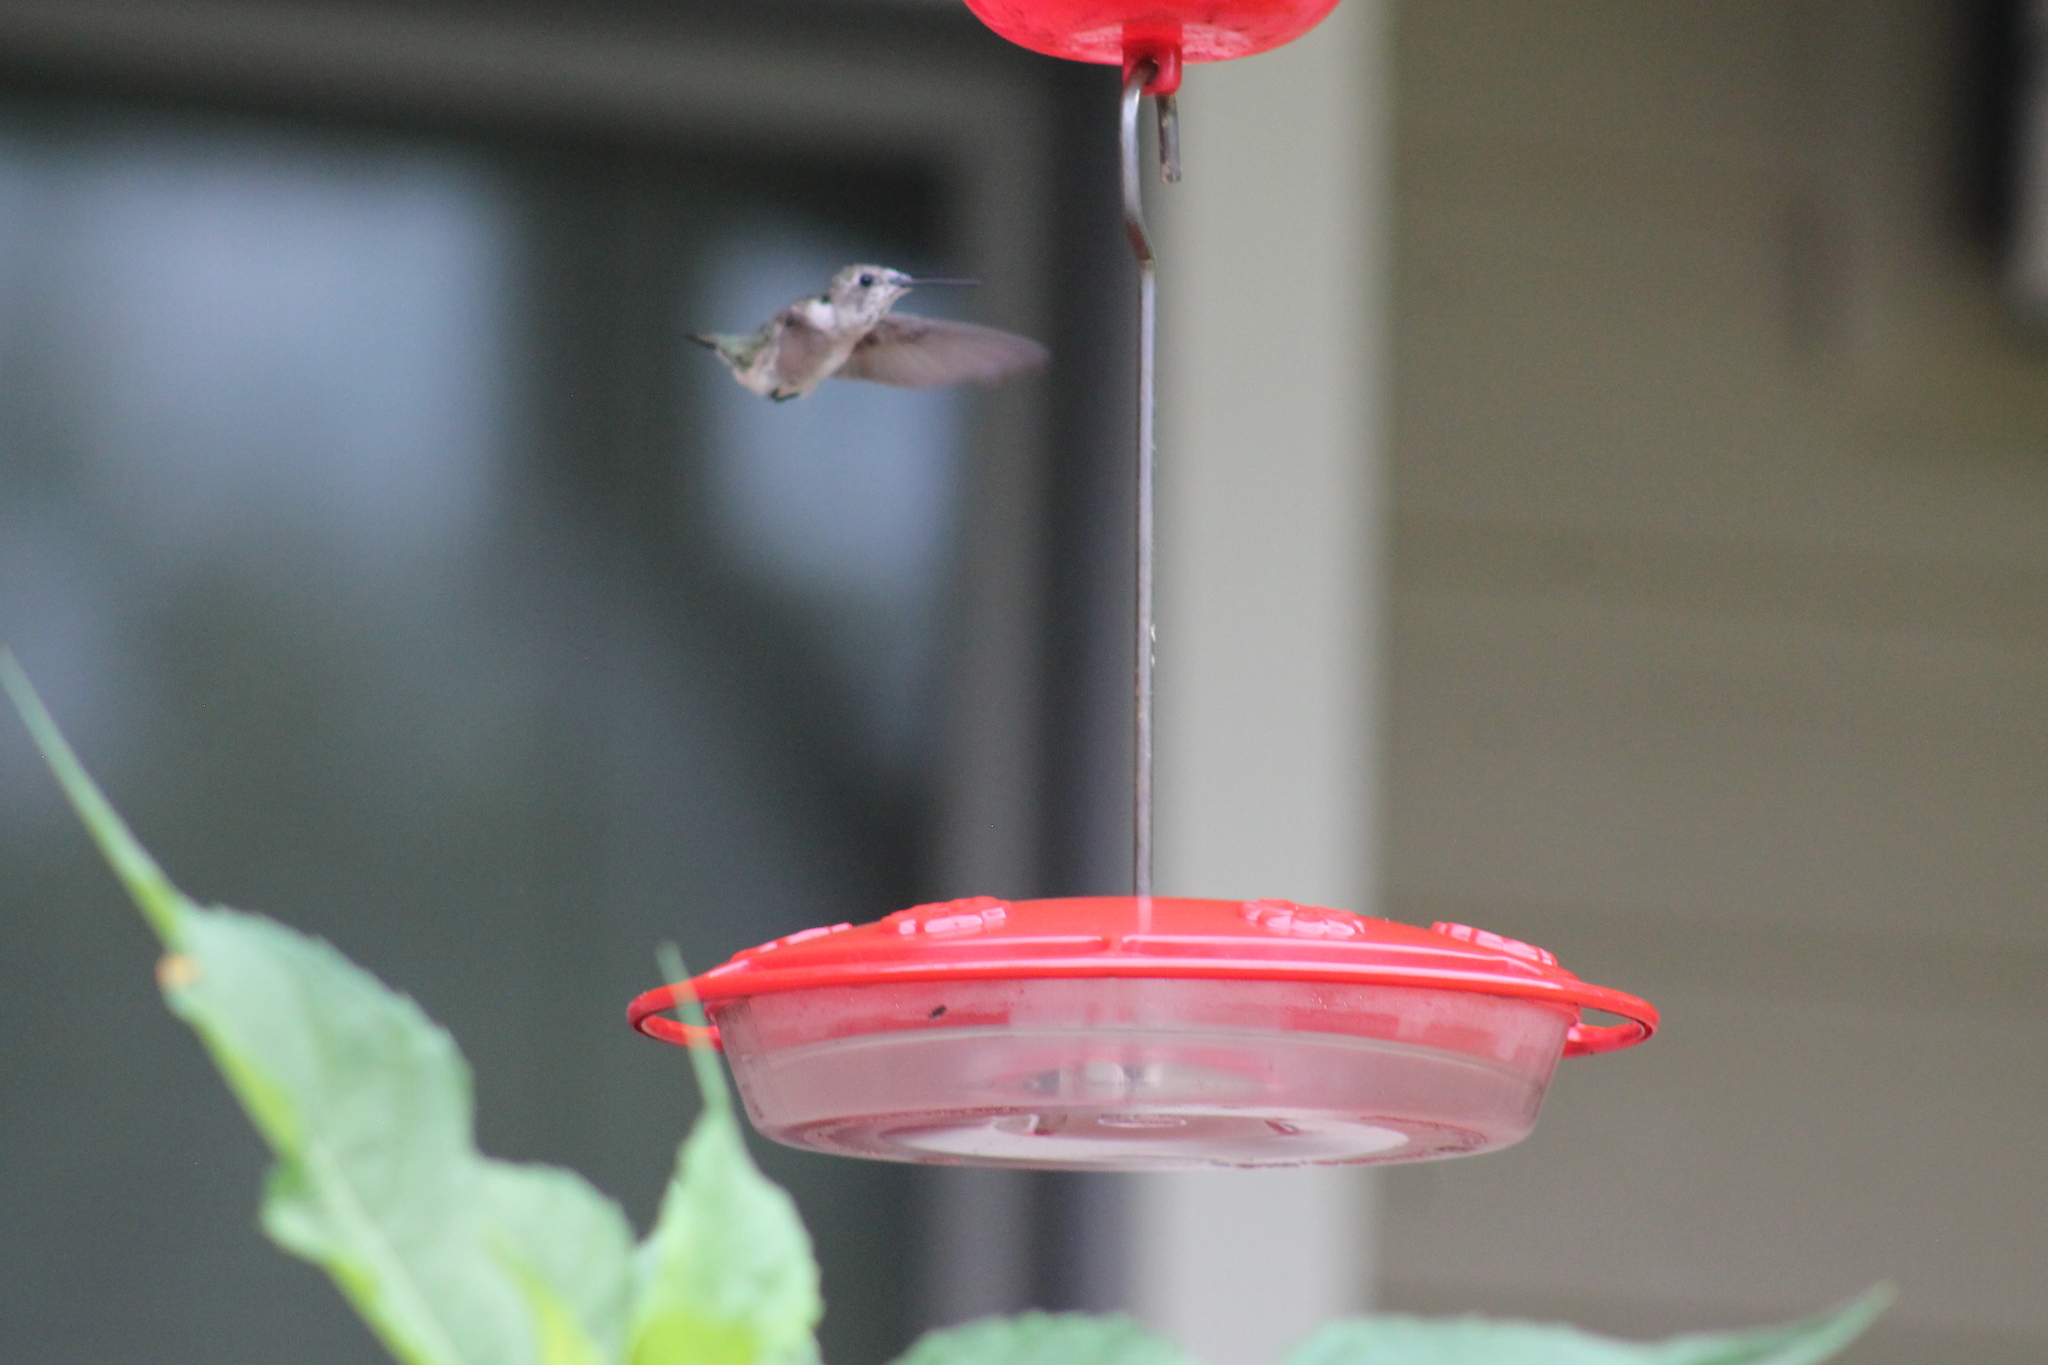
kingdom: Animalia
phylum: Chordata
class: Aves
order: Apodiformes
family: Trochilidae
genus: Archilochus
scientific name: Archilochus colubris
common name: Ruby-throated hummingbird
